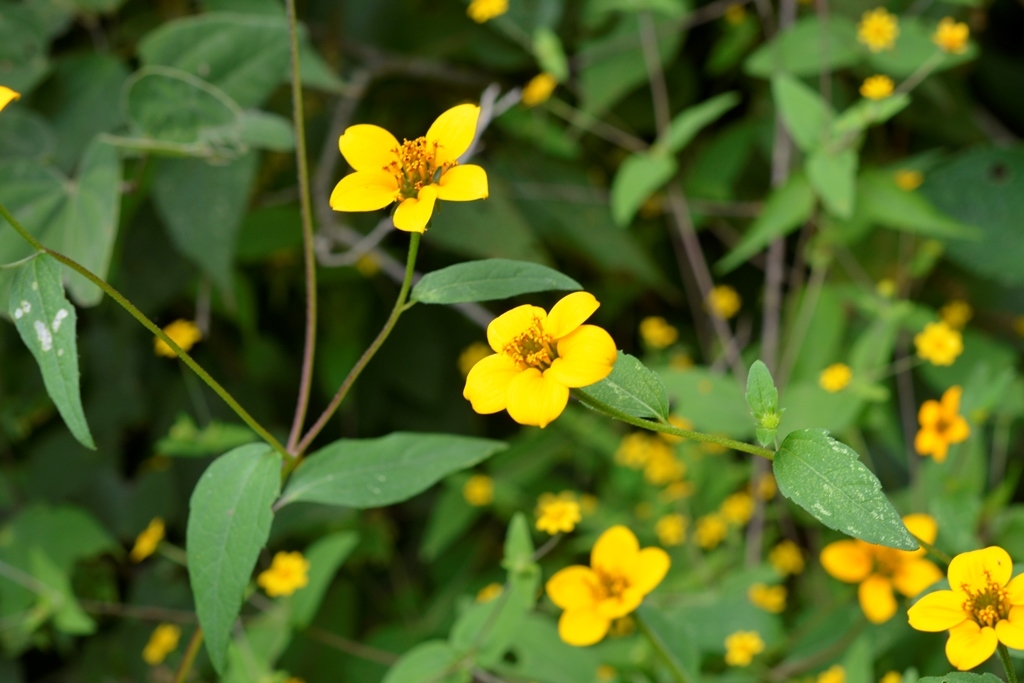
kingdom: Plantae
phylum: Tracheophyta
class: Magnoliopsida
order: Asterales
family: Asteraceae
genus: Sclerocarpus
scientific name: Sclerocarpus uniserialis
